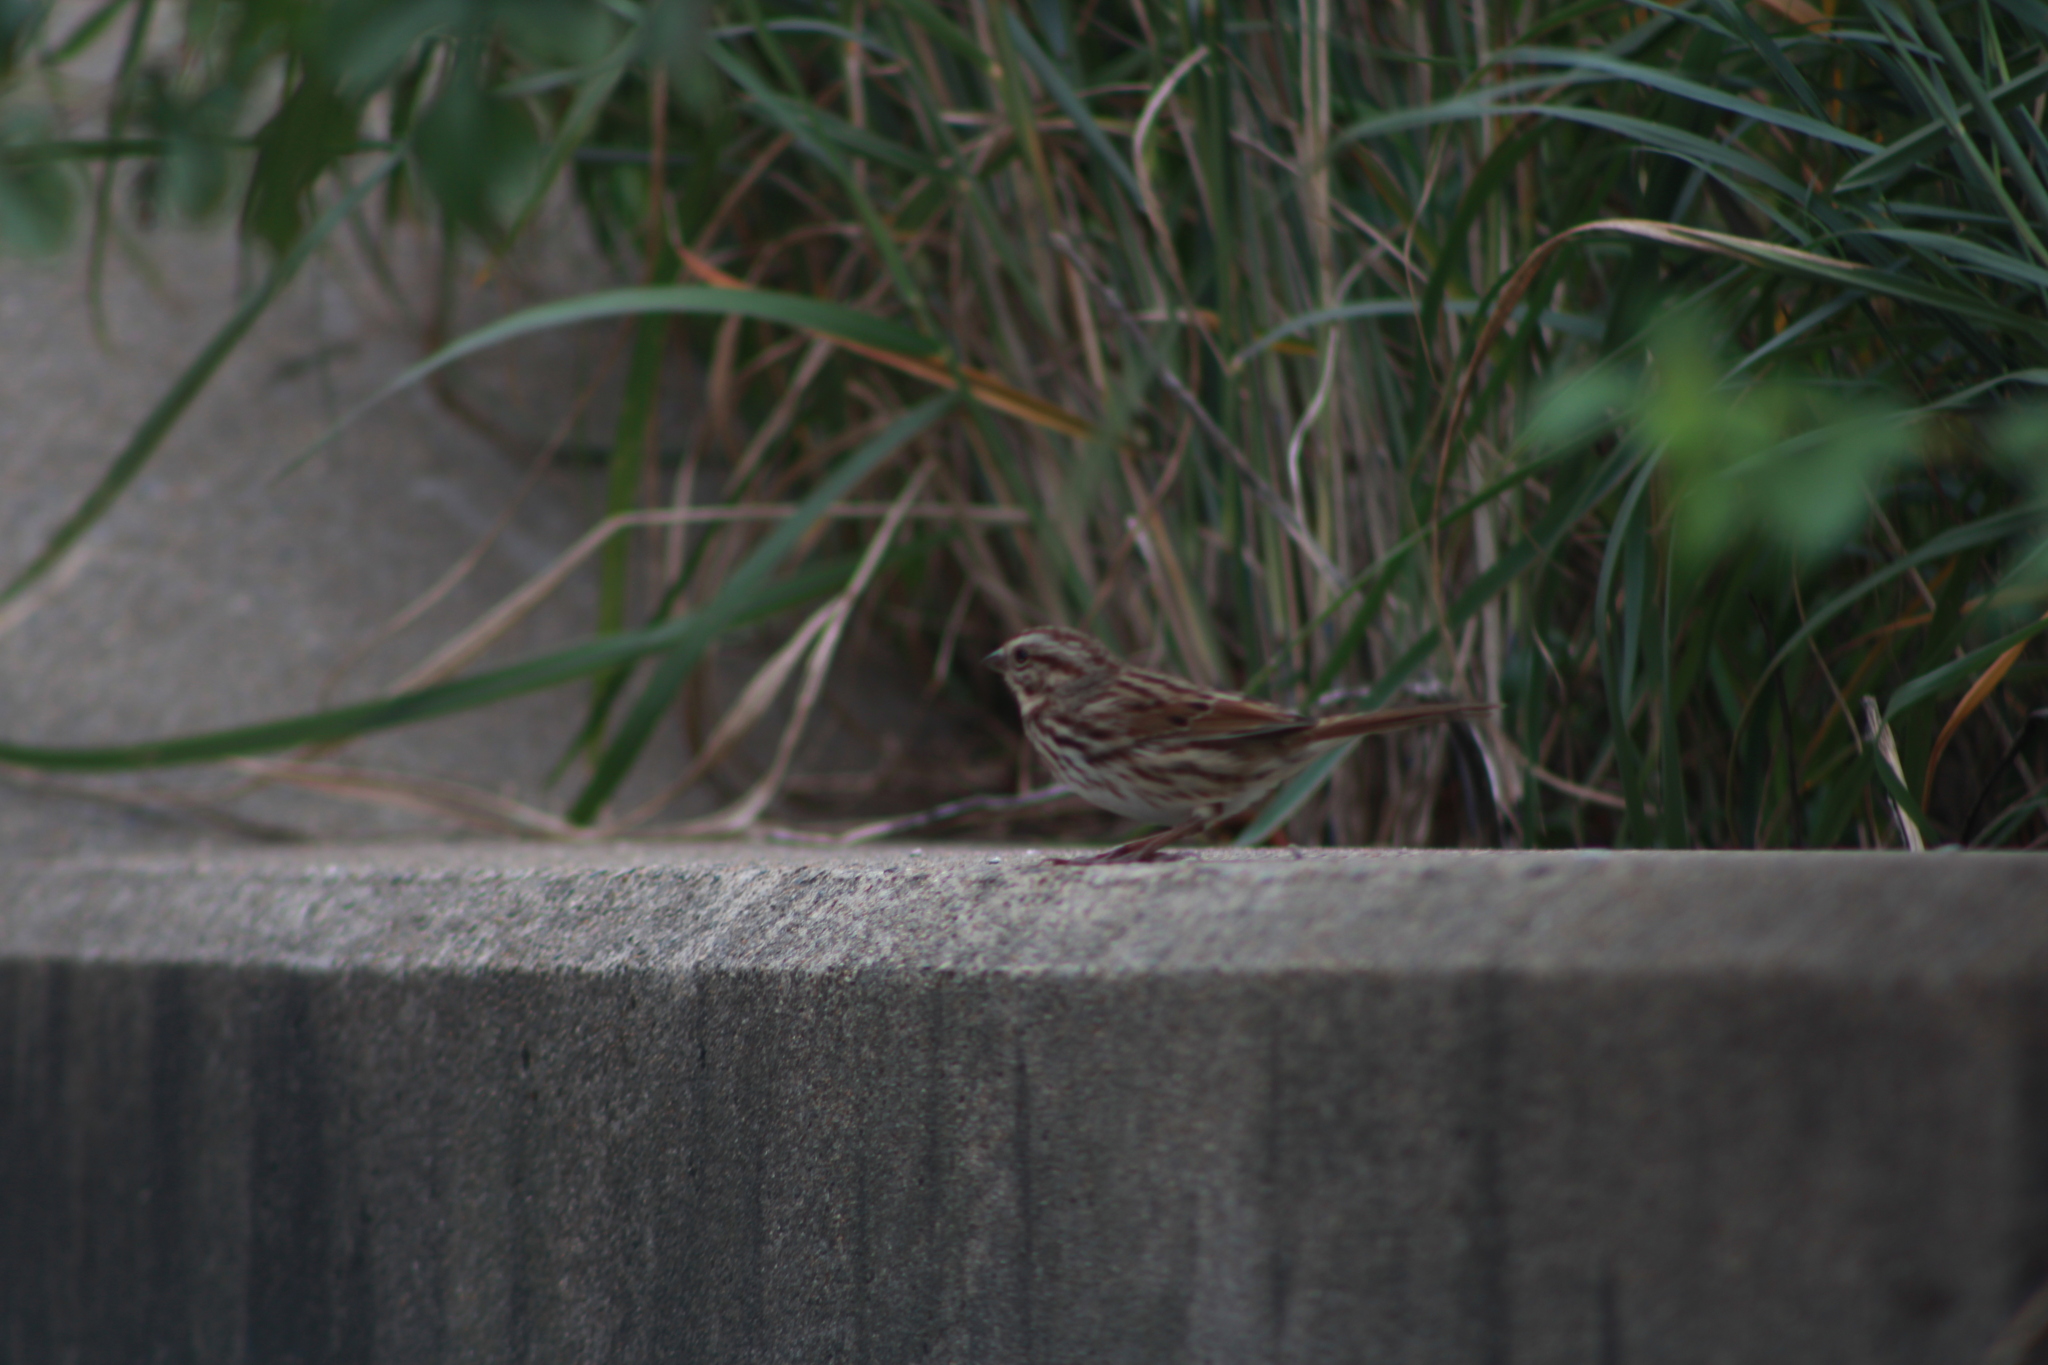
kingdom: Animalia
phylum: Chordata
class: Aves
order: Passeriformes
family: Passerellidae
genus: Melospiza
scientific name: Melospiza melodia
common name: Song sparrow
